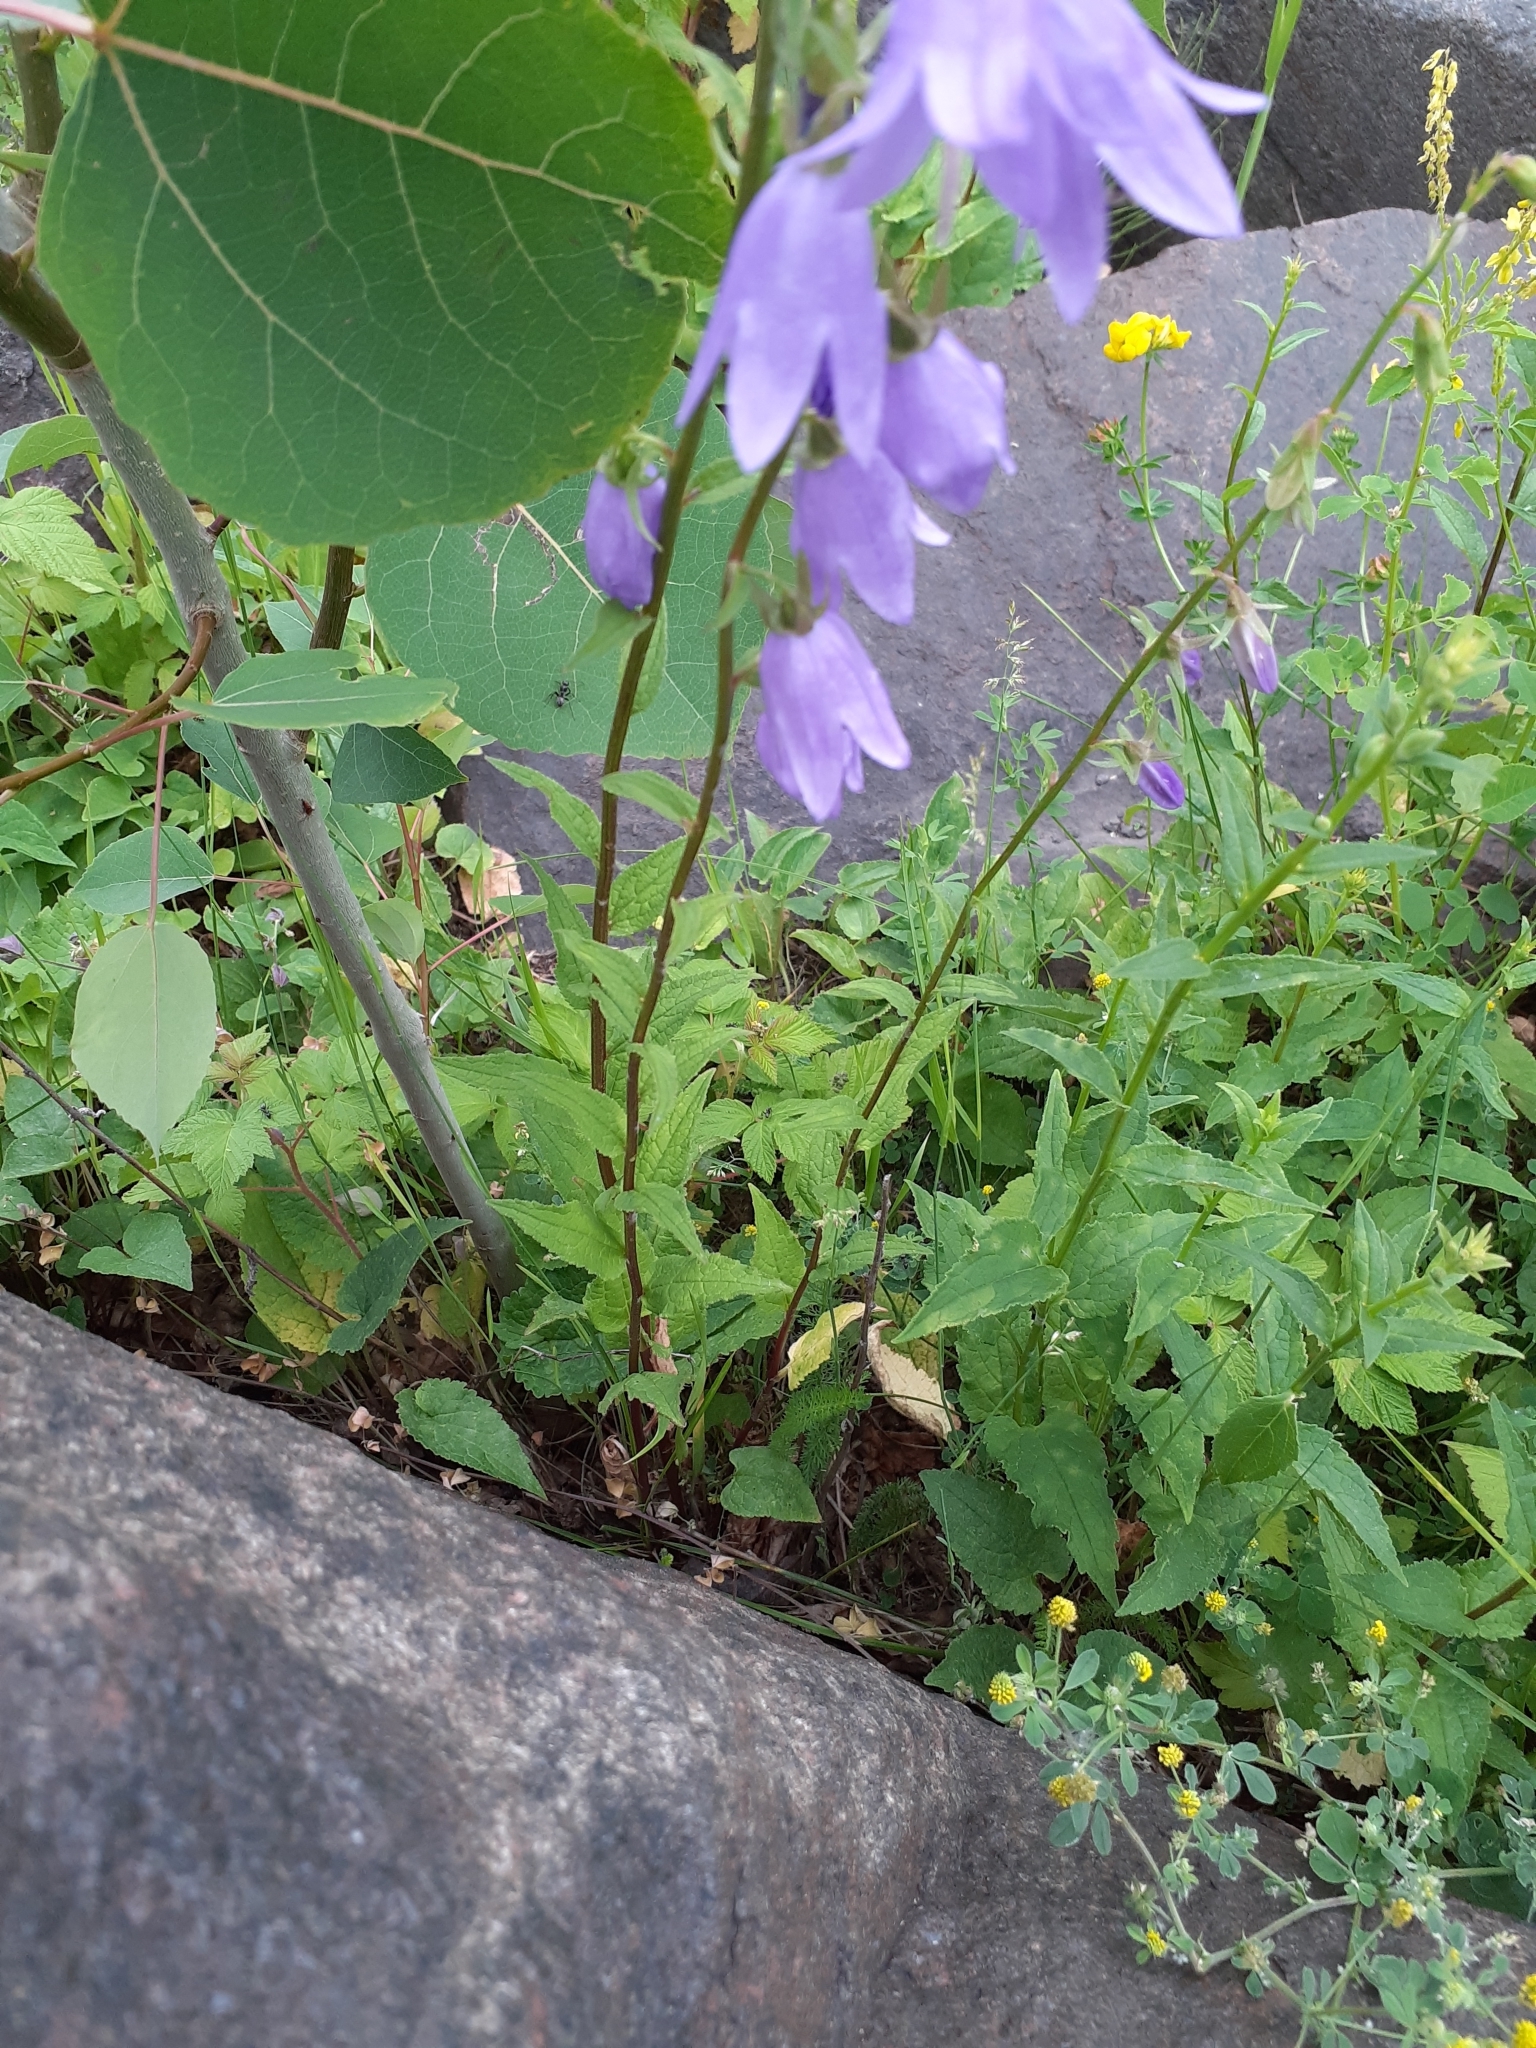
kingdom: Plantae
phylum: Tracheophyta
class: Magnoliopsida
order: Asterales
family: Campanulaceae
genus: Campanula
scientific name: Campanula rapunculoides
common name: Creeping bellflower
